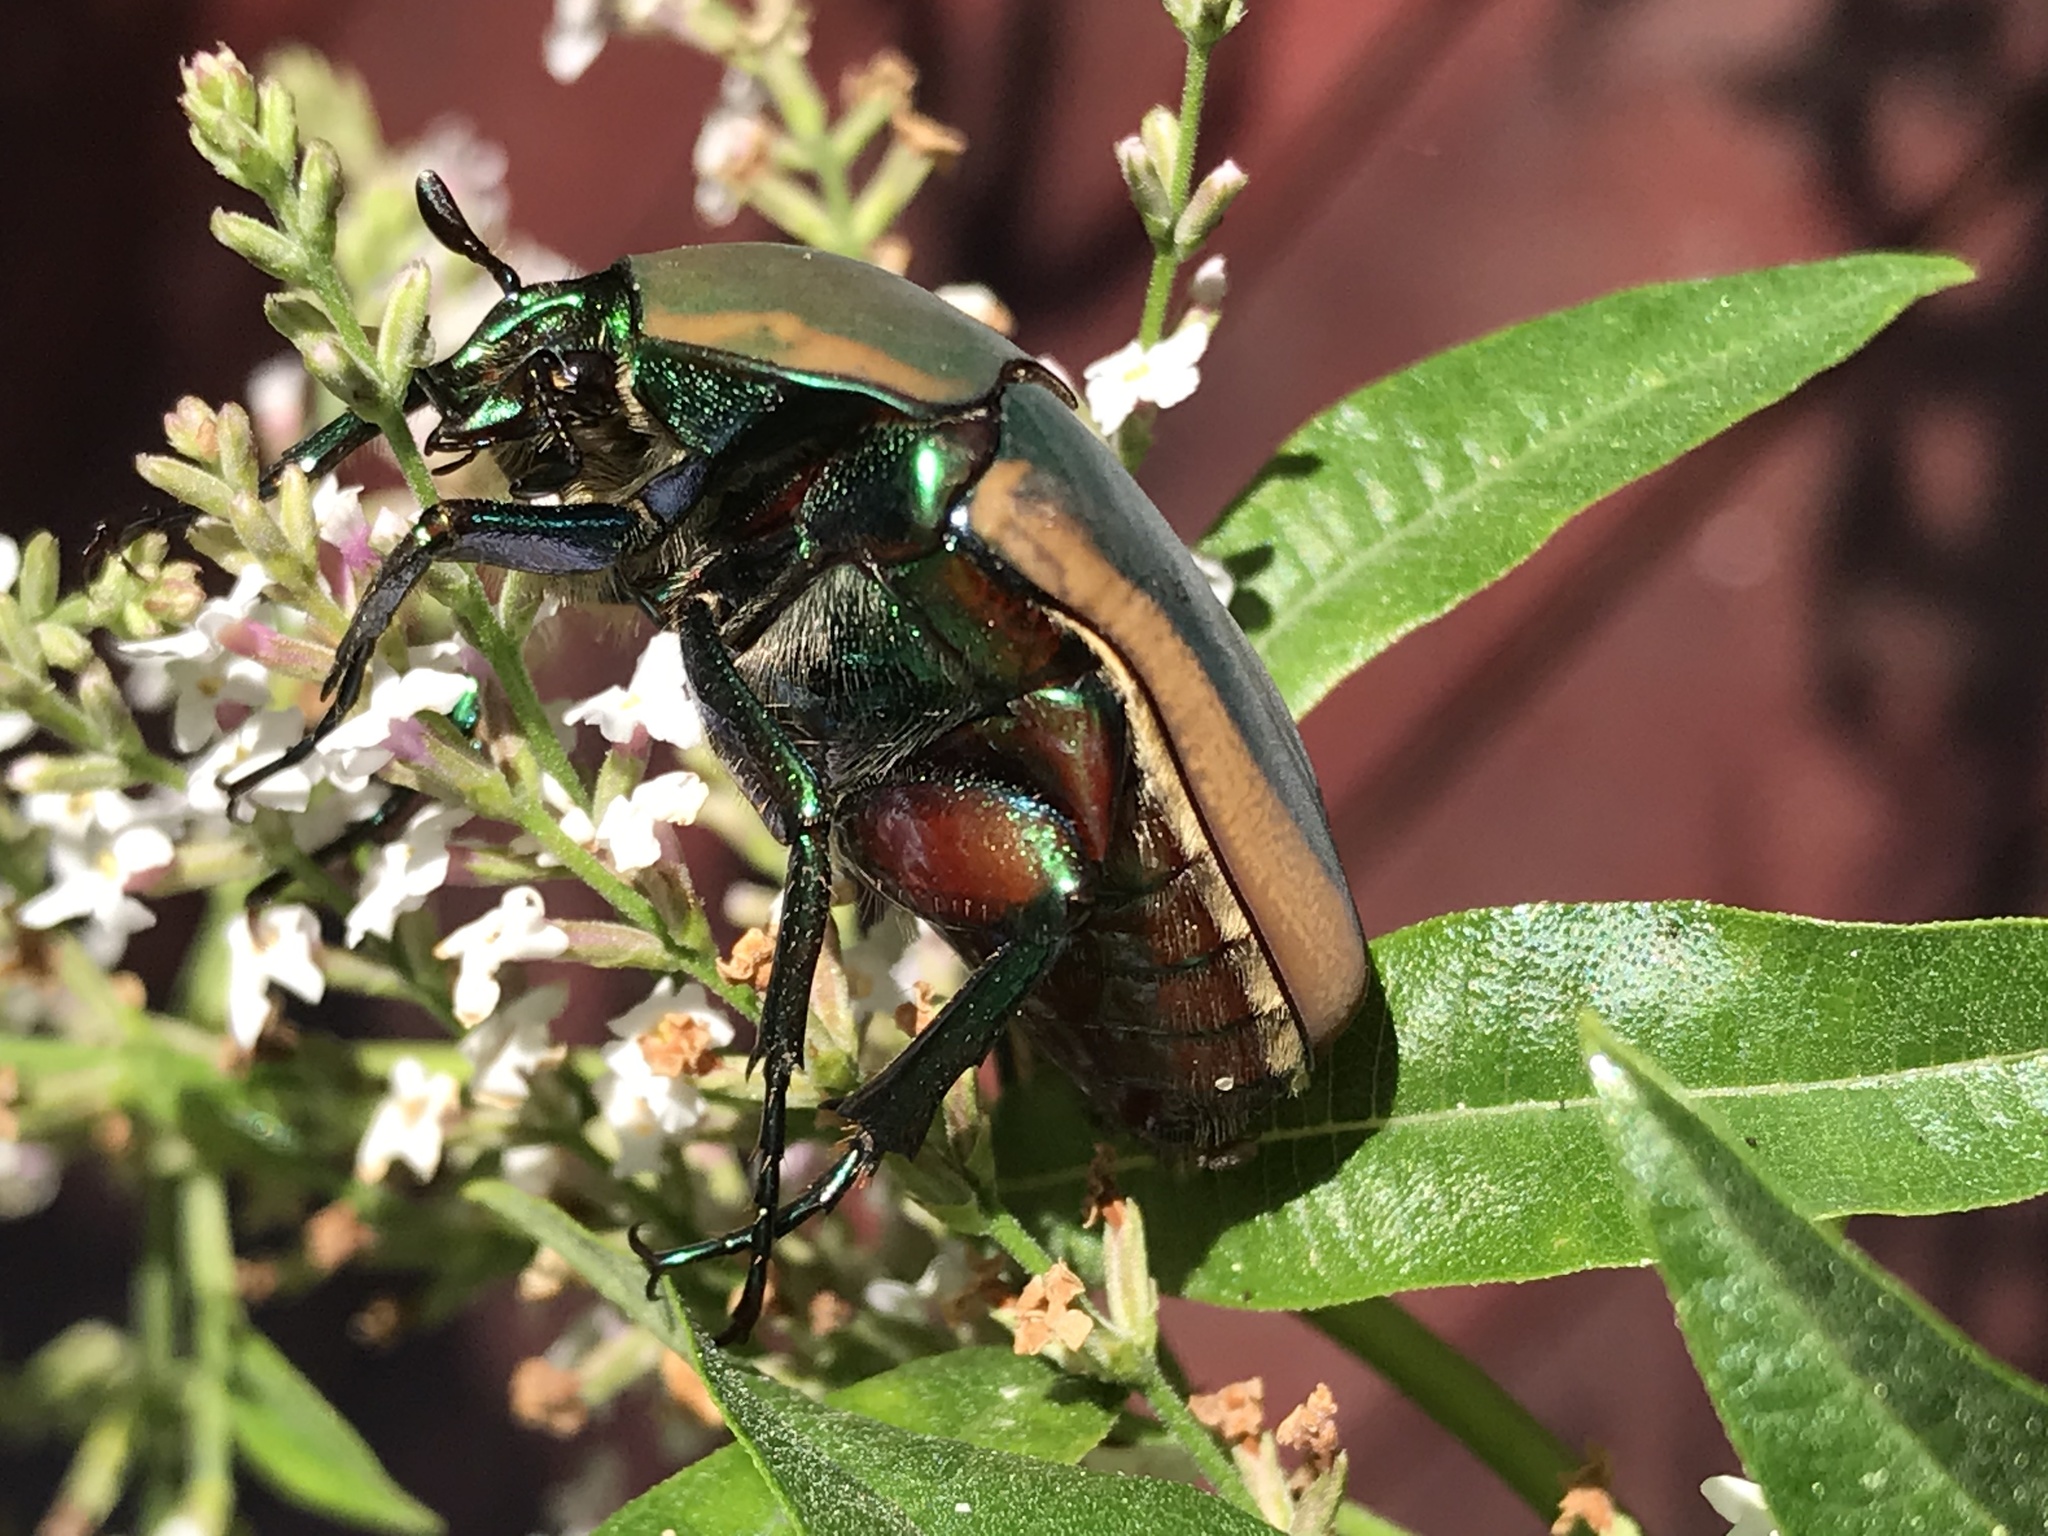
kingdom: Animalia
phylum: Arthropoda
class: Insecta
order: Coleoptera
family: Scarabaeidae
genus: Cotinis
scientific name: Cotinis mutabilis
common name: Figeater beetle
